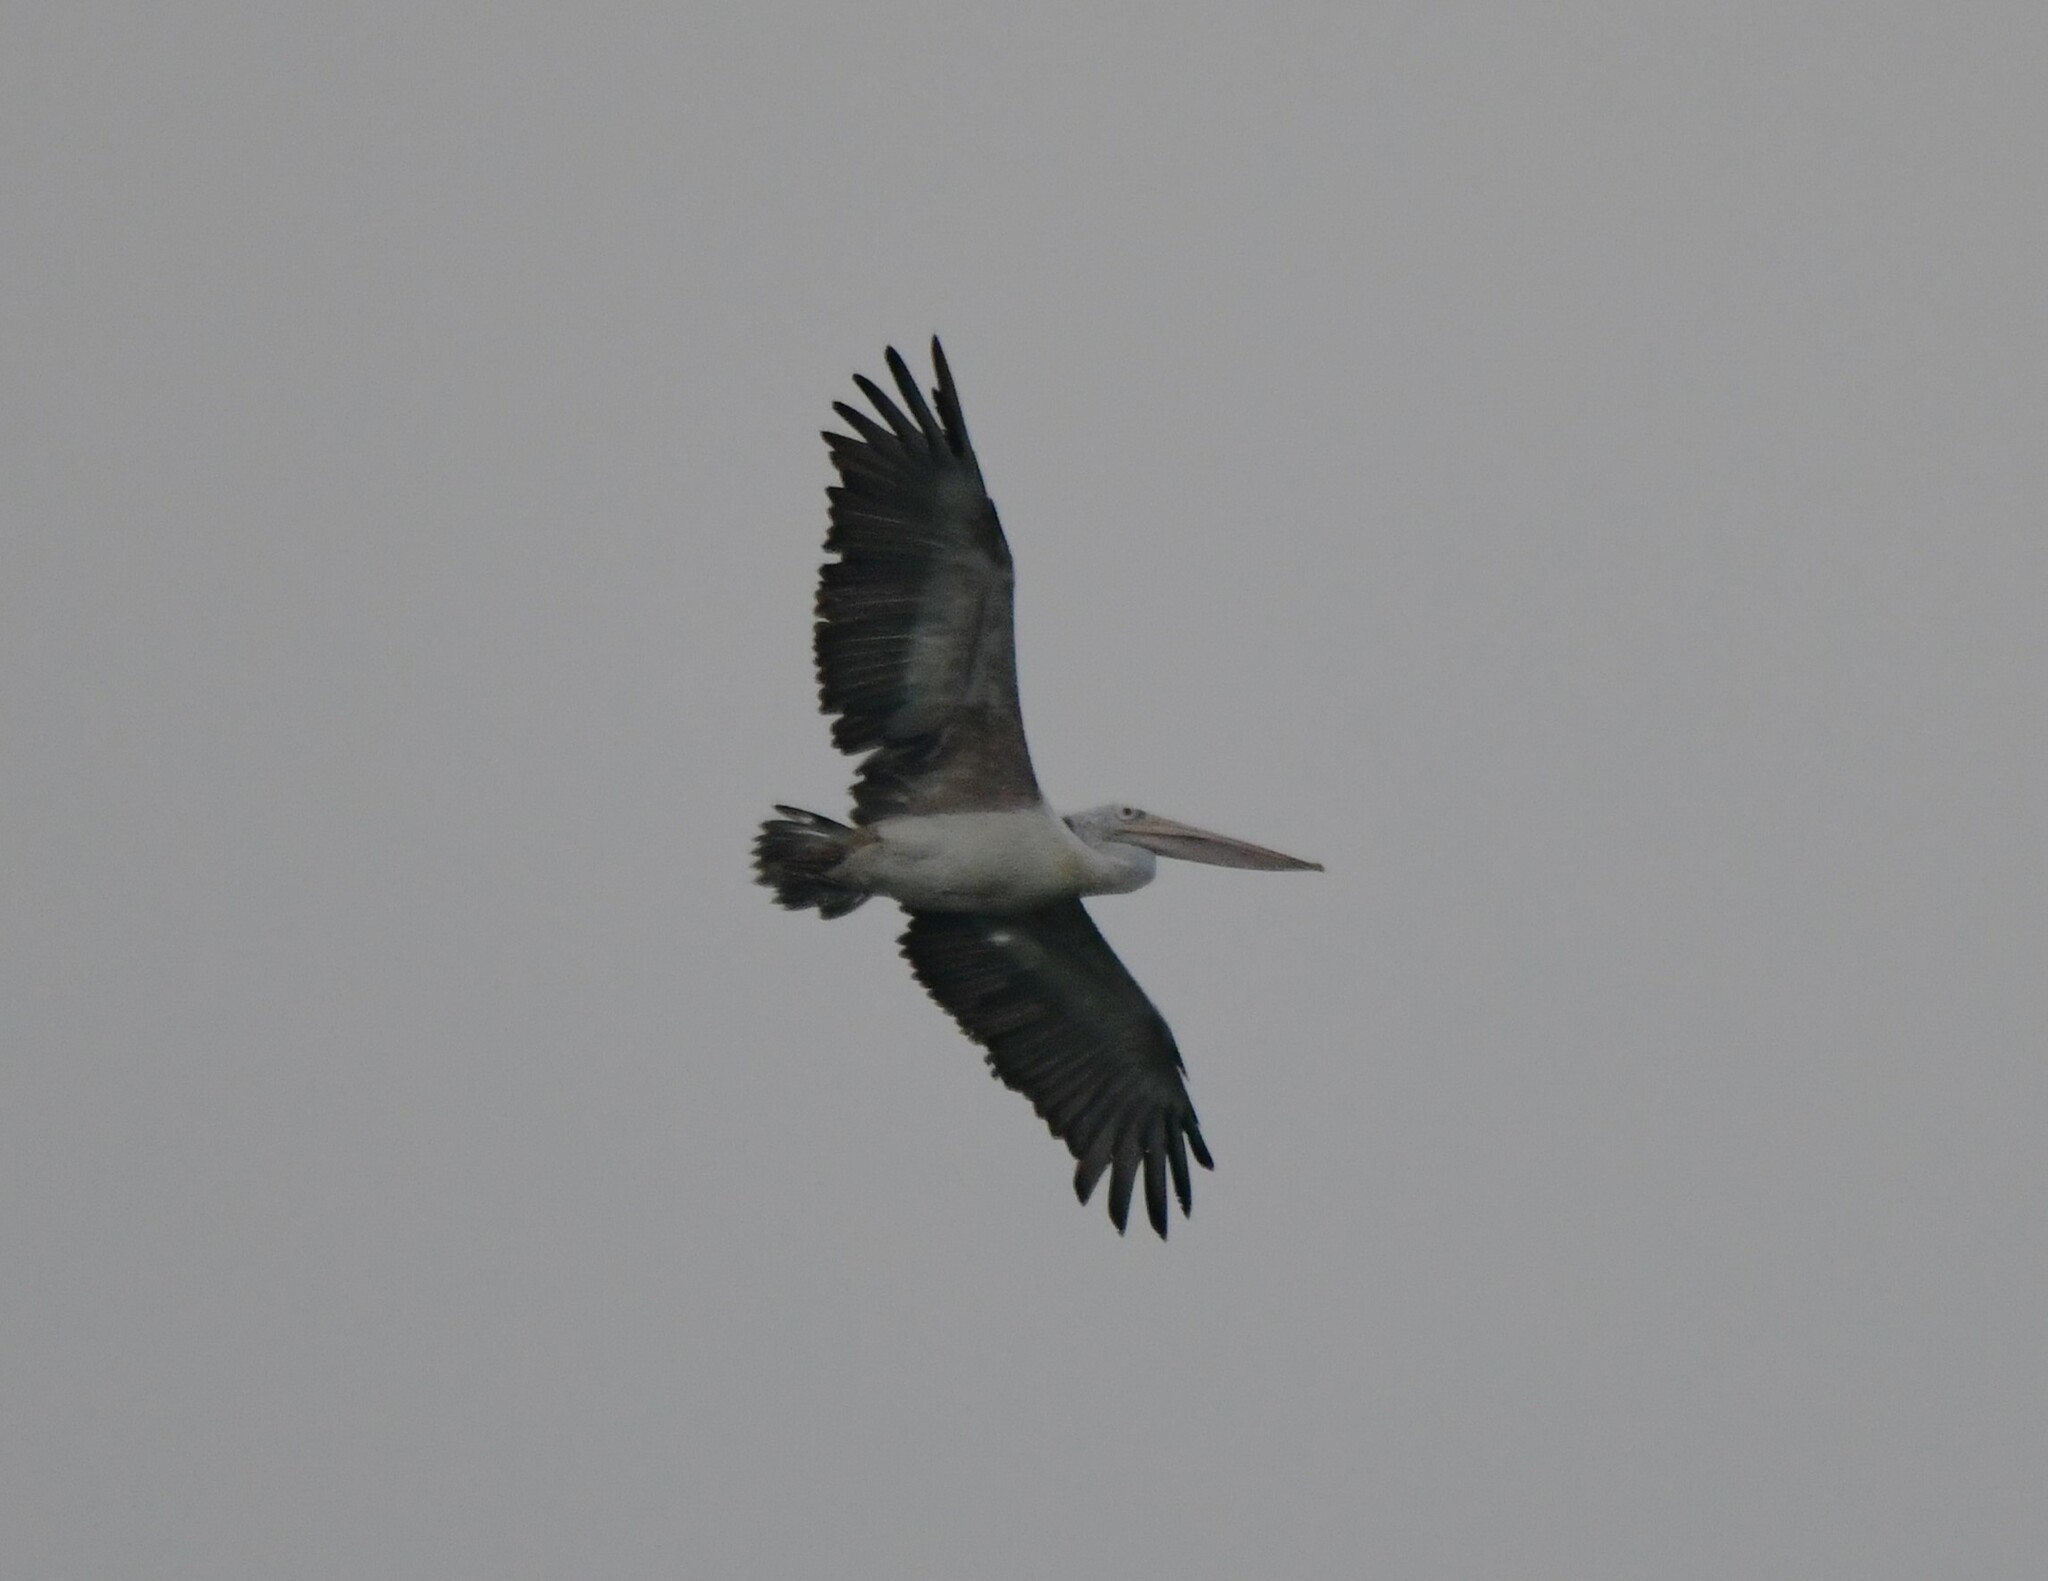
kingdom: Animalia
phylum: Chordata
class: Aves
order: Pelecaniformes
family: Pelecanidae
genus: Pelecanus
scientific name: Pelecanus philippensis
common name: Spot-billed pelican
